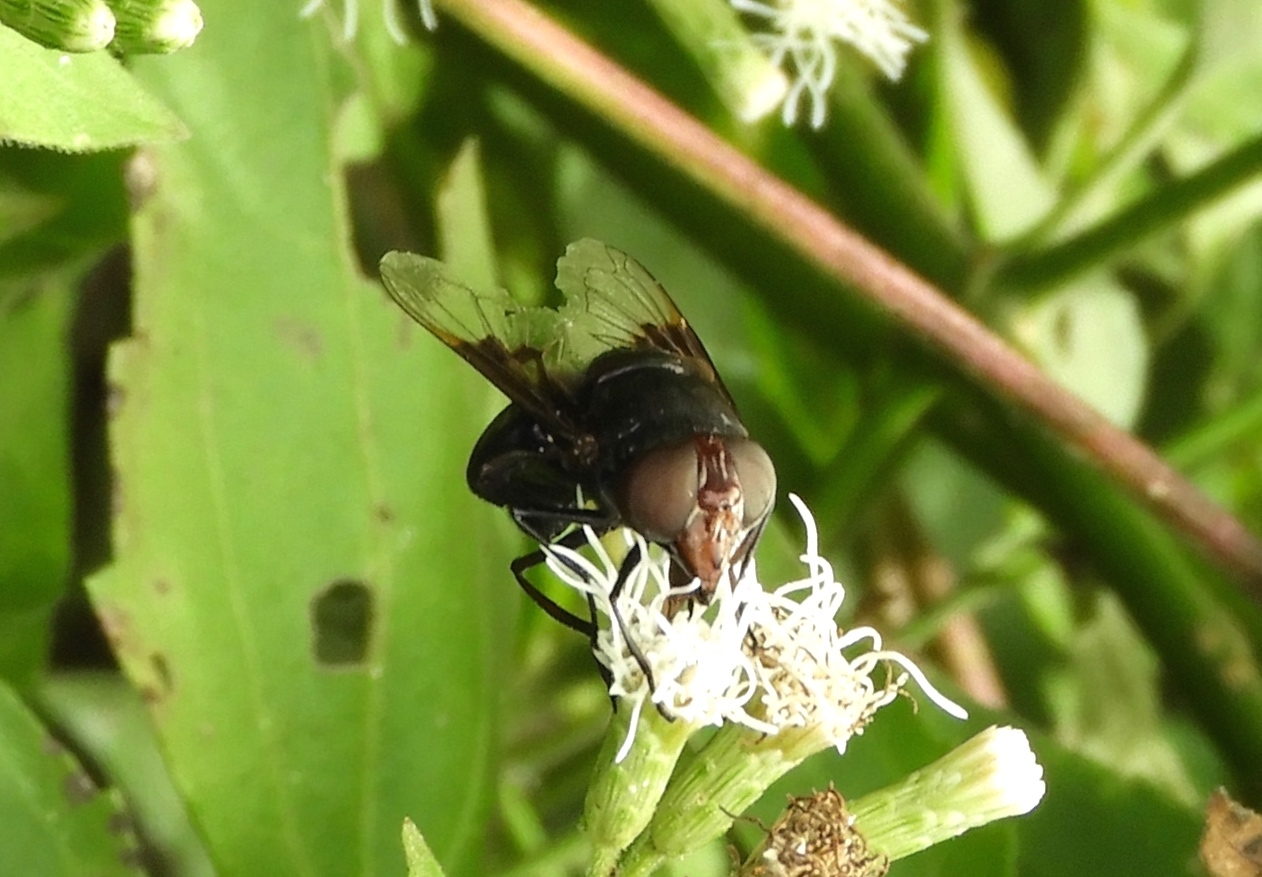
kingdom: Animalia
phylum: Arthropoda
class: Insecta
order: Diptera
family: Syrphidae
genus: Copestylum
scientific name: Copestylum mexicanum
